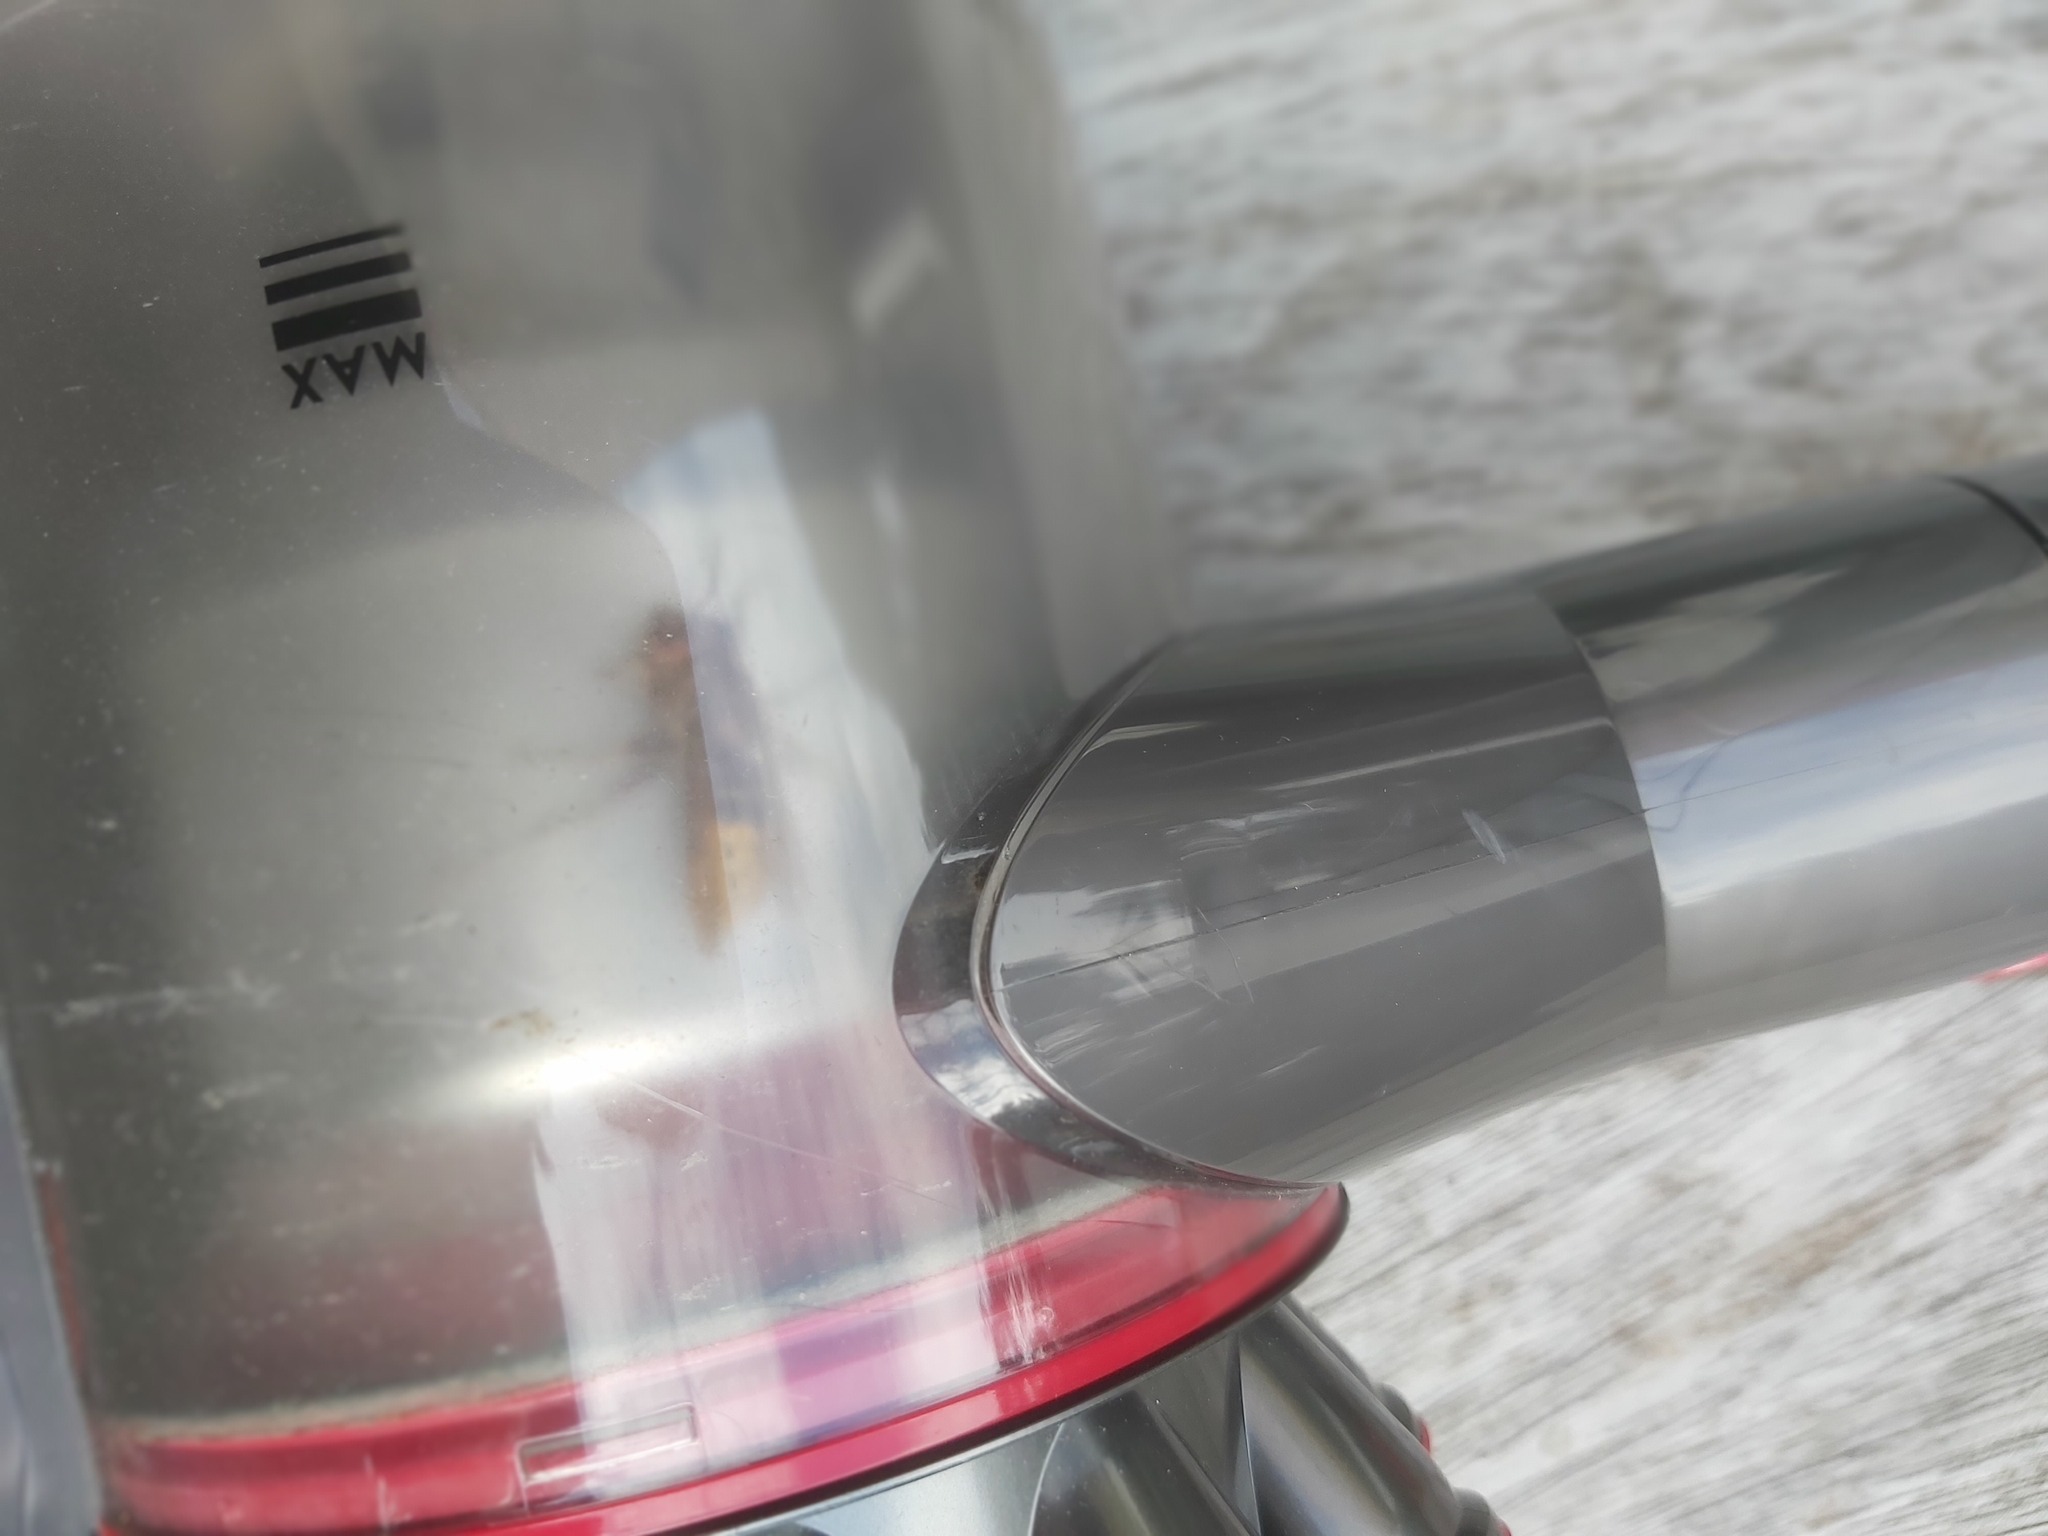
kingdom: Animalia
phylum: Arthropoda
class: Insecta
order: Hymenoptera
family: Vespidae
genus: Vespa
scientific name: Vespa crabro
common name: Hornet
